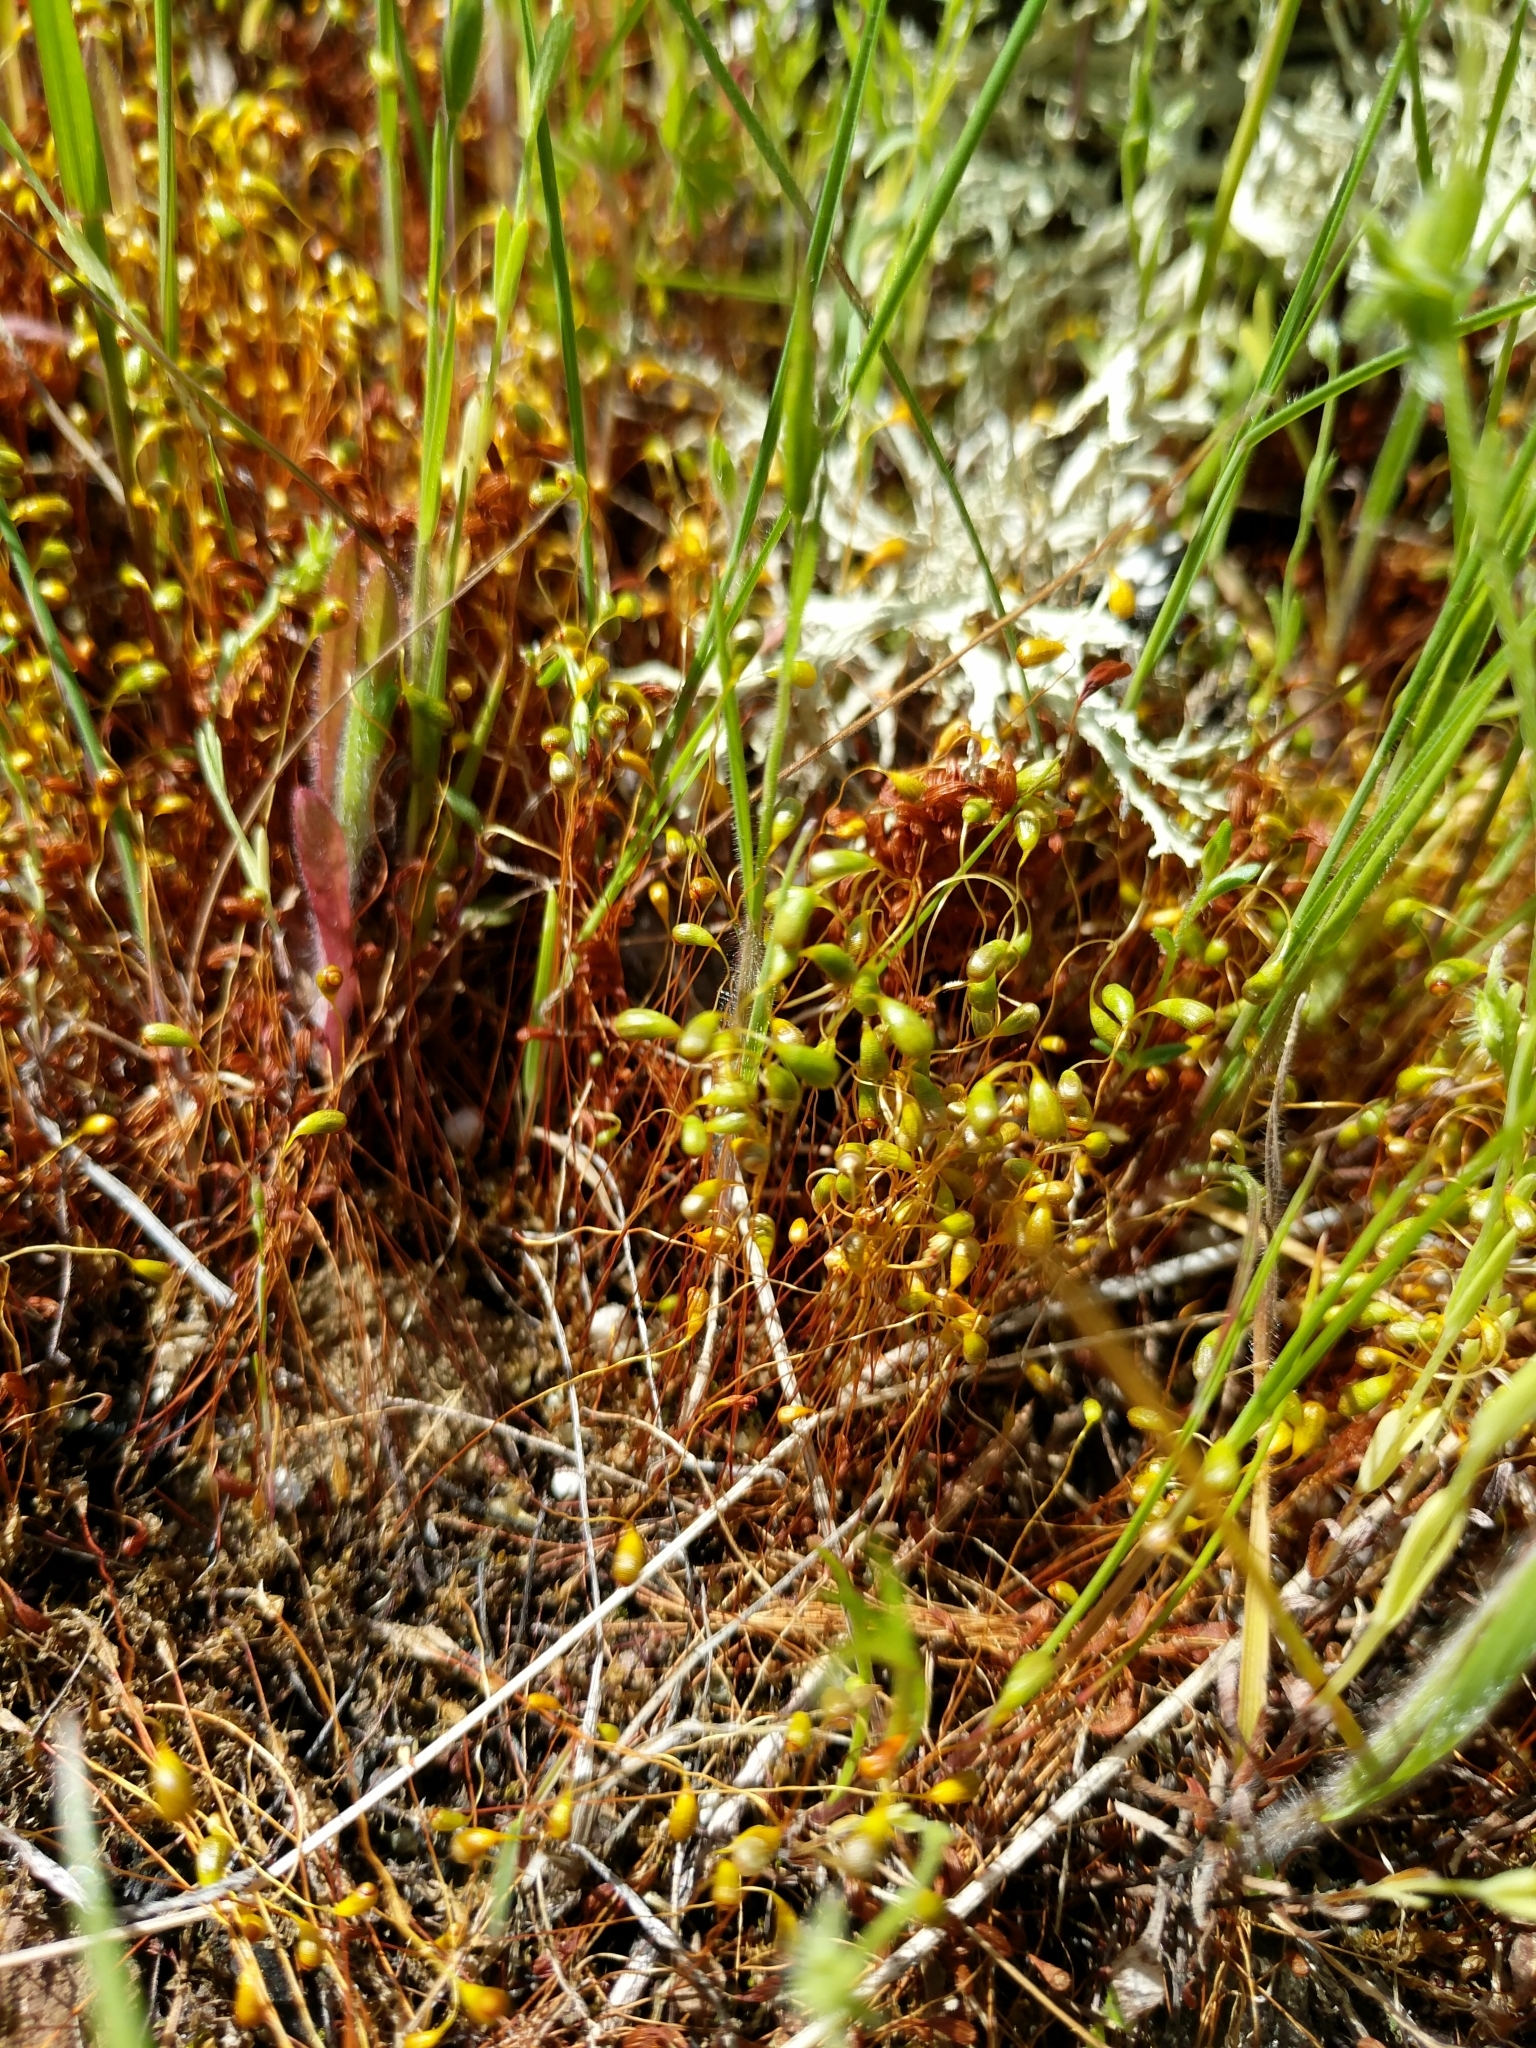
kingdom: Plantae
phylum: Bryophyta
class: Bryopsida
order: Funariales
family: Funariaceae
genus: Funaria
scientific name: Funaria hygrometrica
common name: Common cord moss
